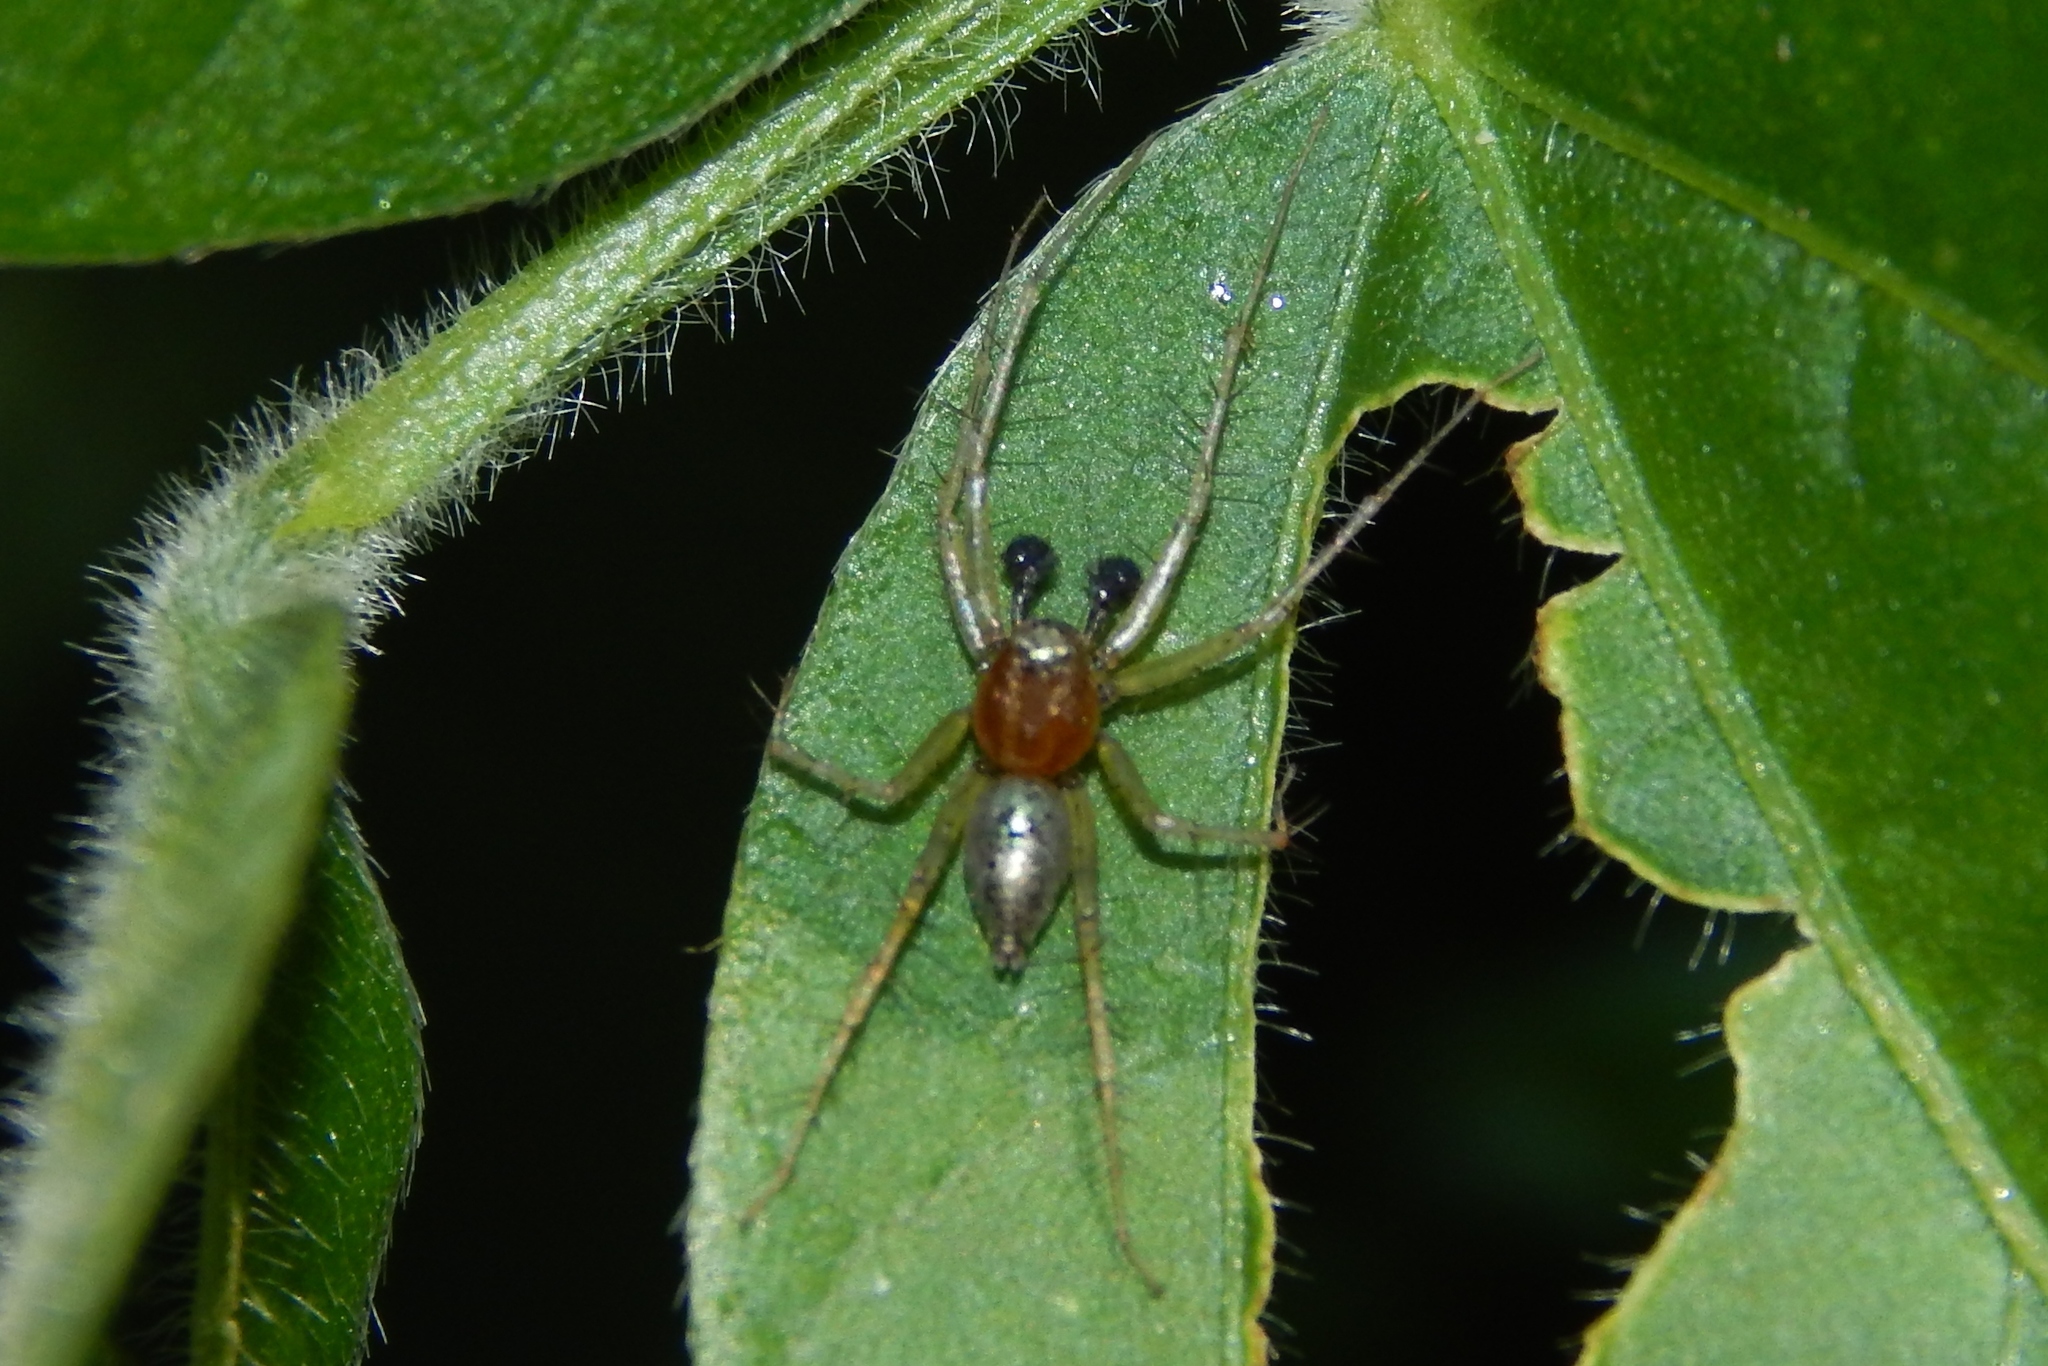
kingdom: Animalia
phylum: Arthropoda
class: Arachnida
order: Araneae
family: Oxyopidae
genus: Oxyopes
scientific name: Oxyopes salticus
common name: Lynx spiders
